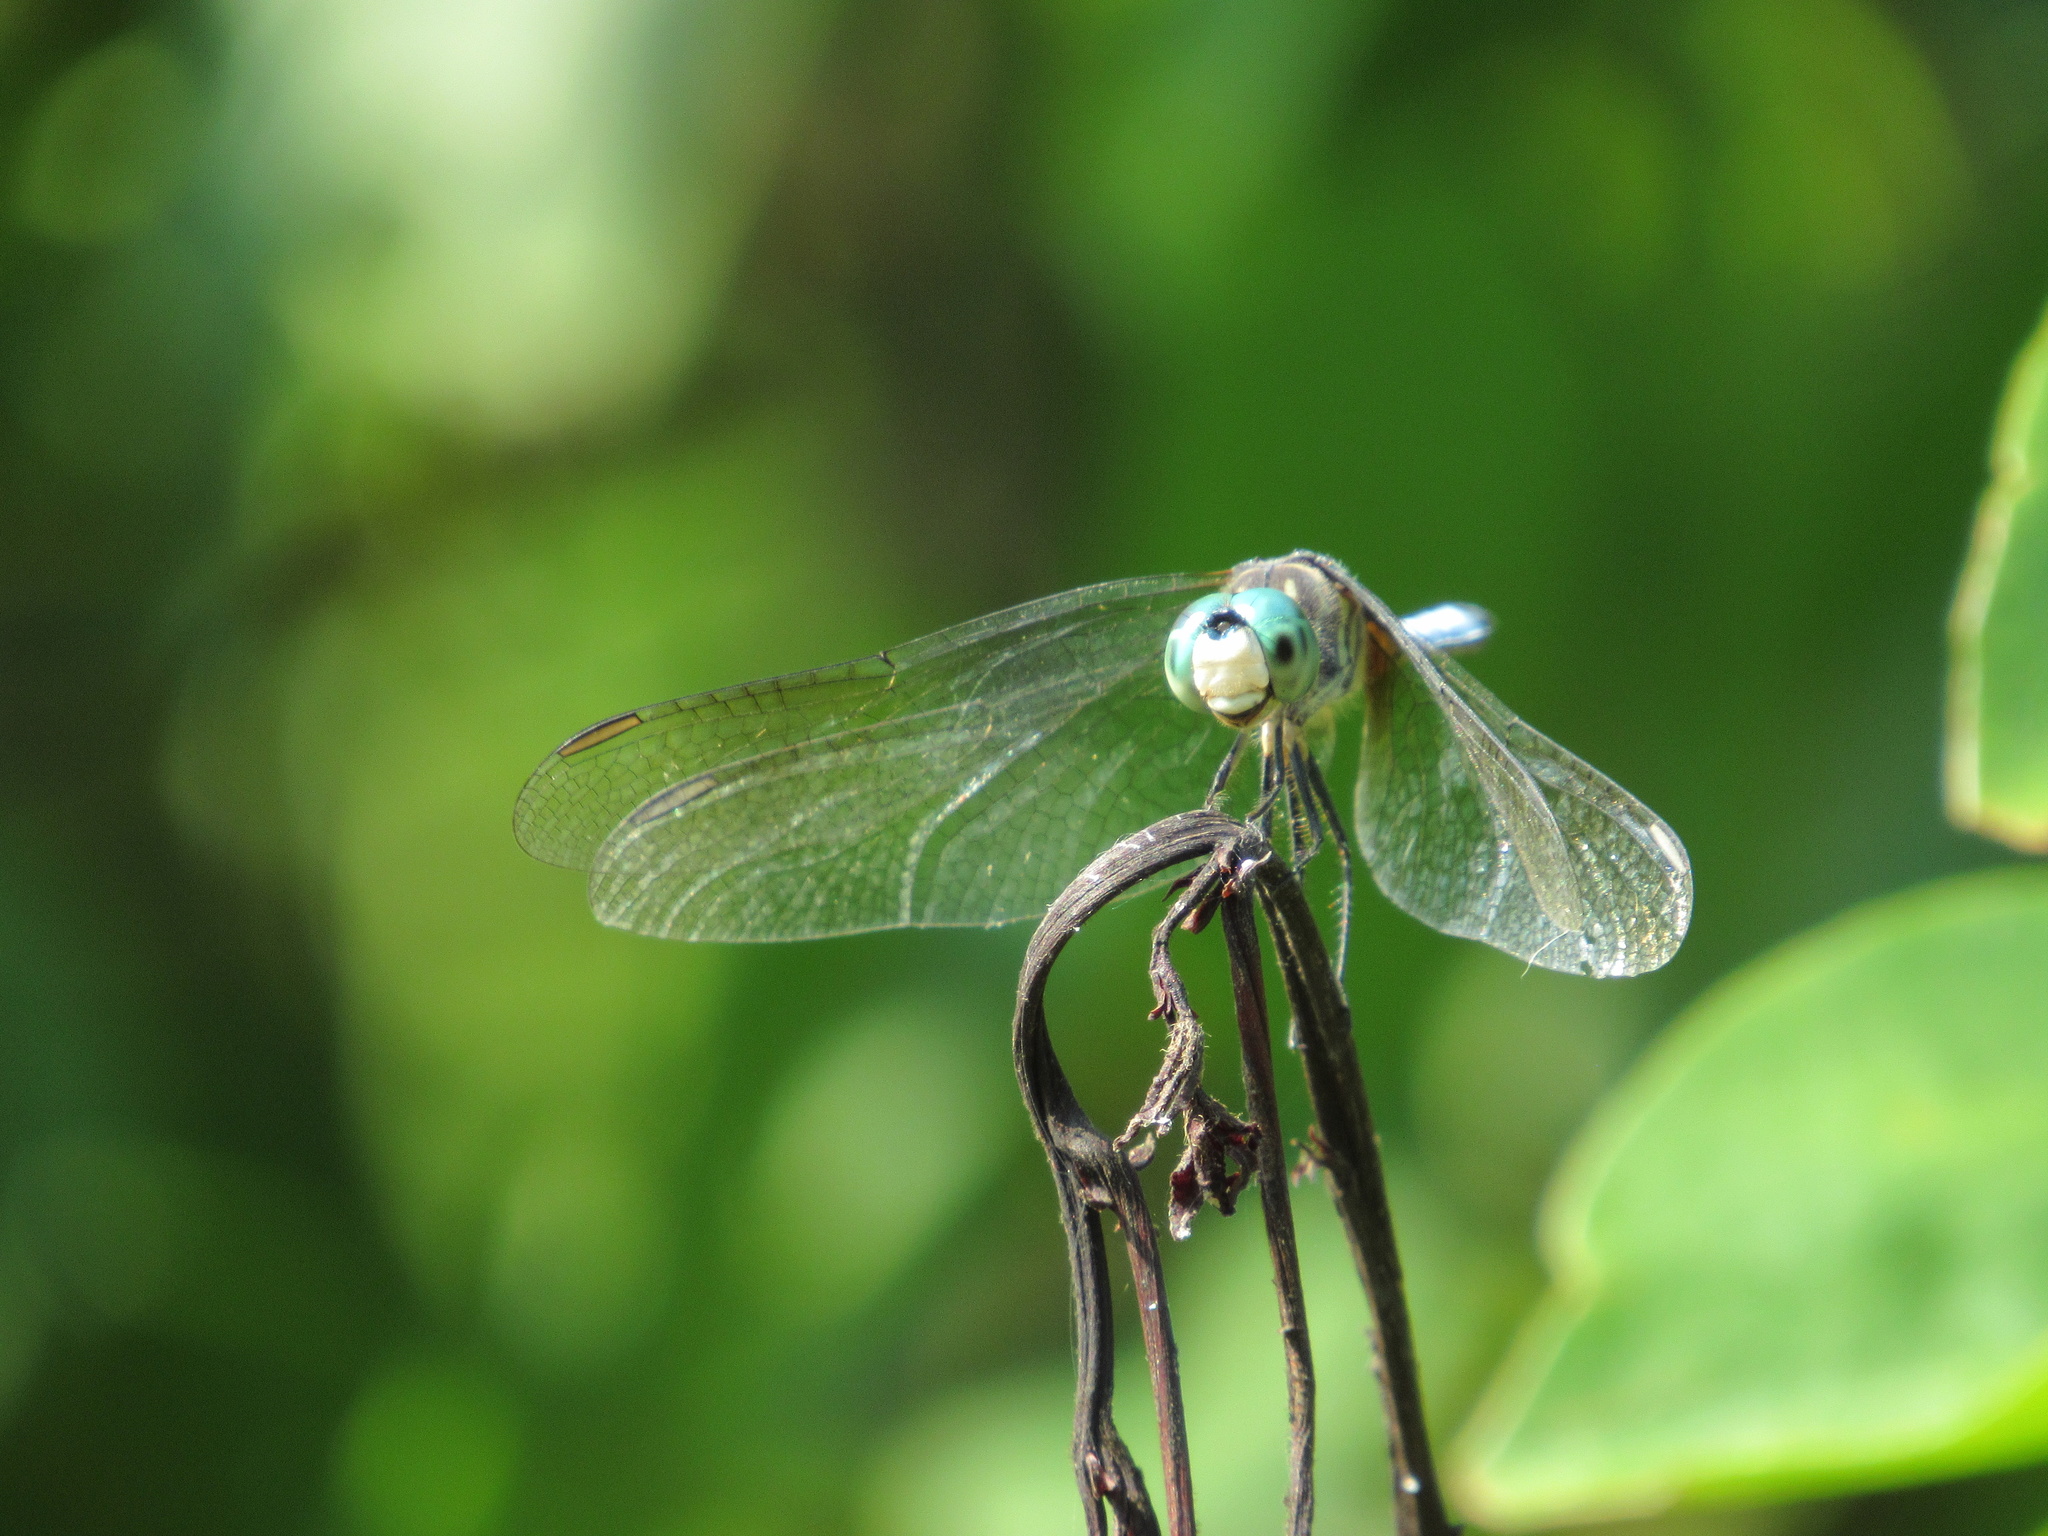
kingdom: Animalia
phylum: Arthropoda
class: Insecta
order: Odonata
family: Libellulidae
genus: Pachydiplax
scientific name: Pachydiplax longipennis
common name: Blue dasher
